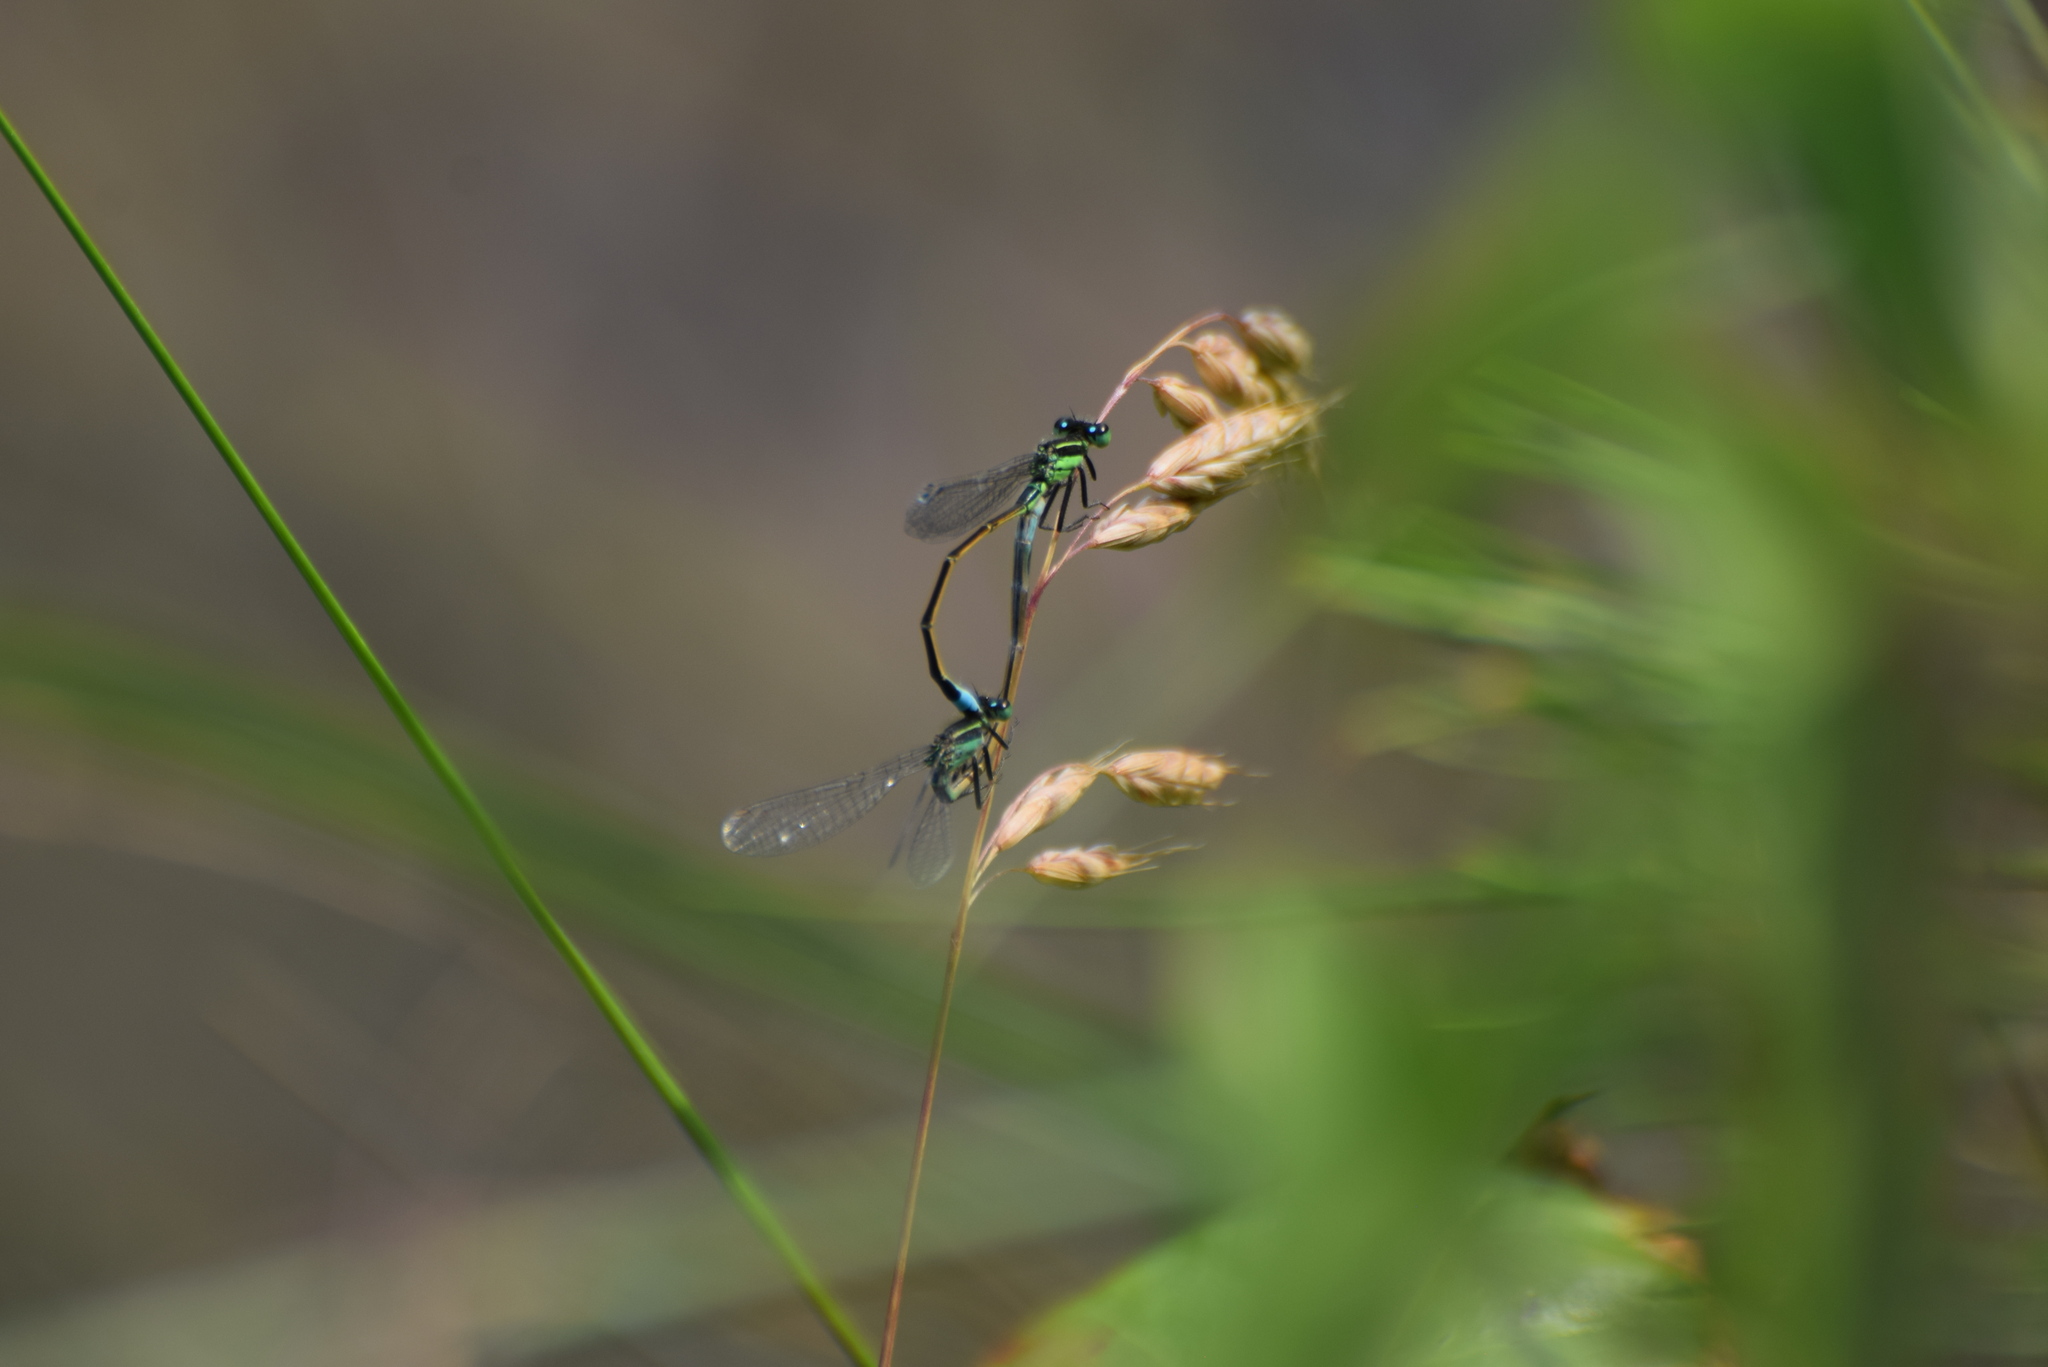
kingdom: Animalia
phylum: Arthropoda
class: Insecta
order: Odonata
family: Coenagrionidae
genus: Ischnura
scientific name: Ischnura ramburii
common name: Rambur's forktail
